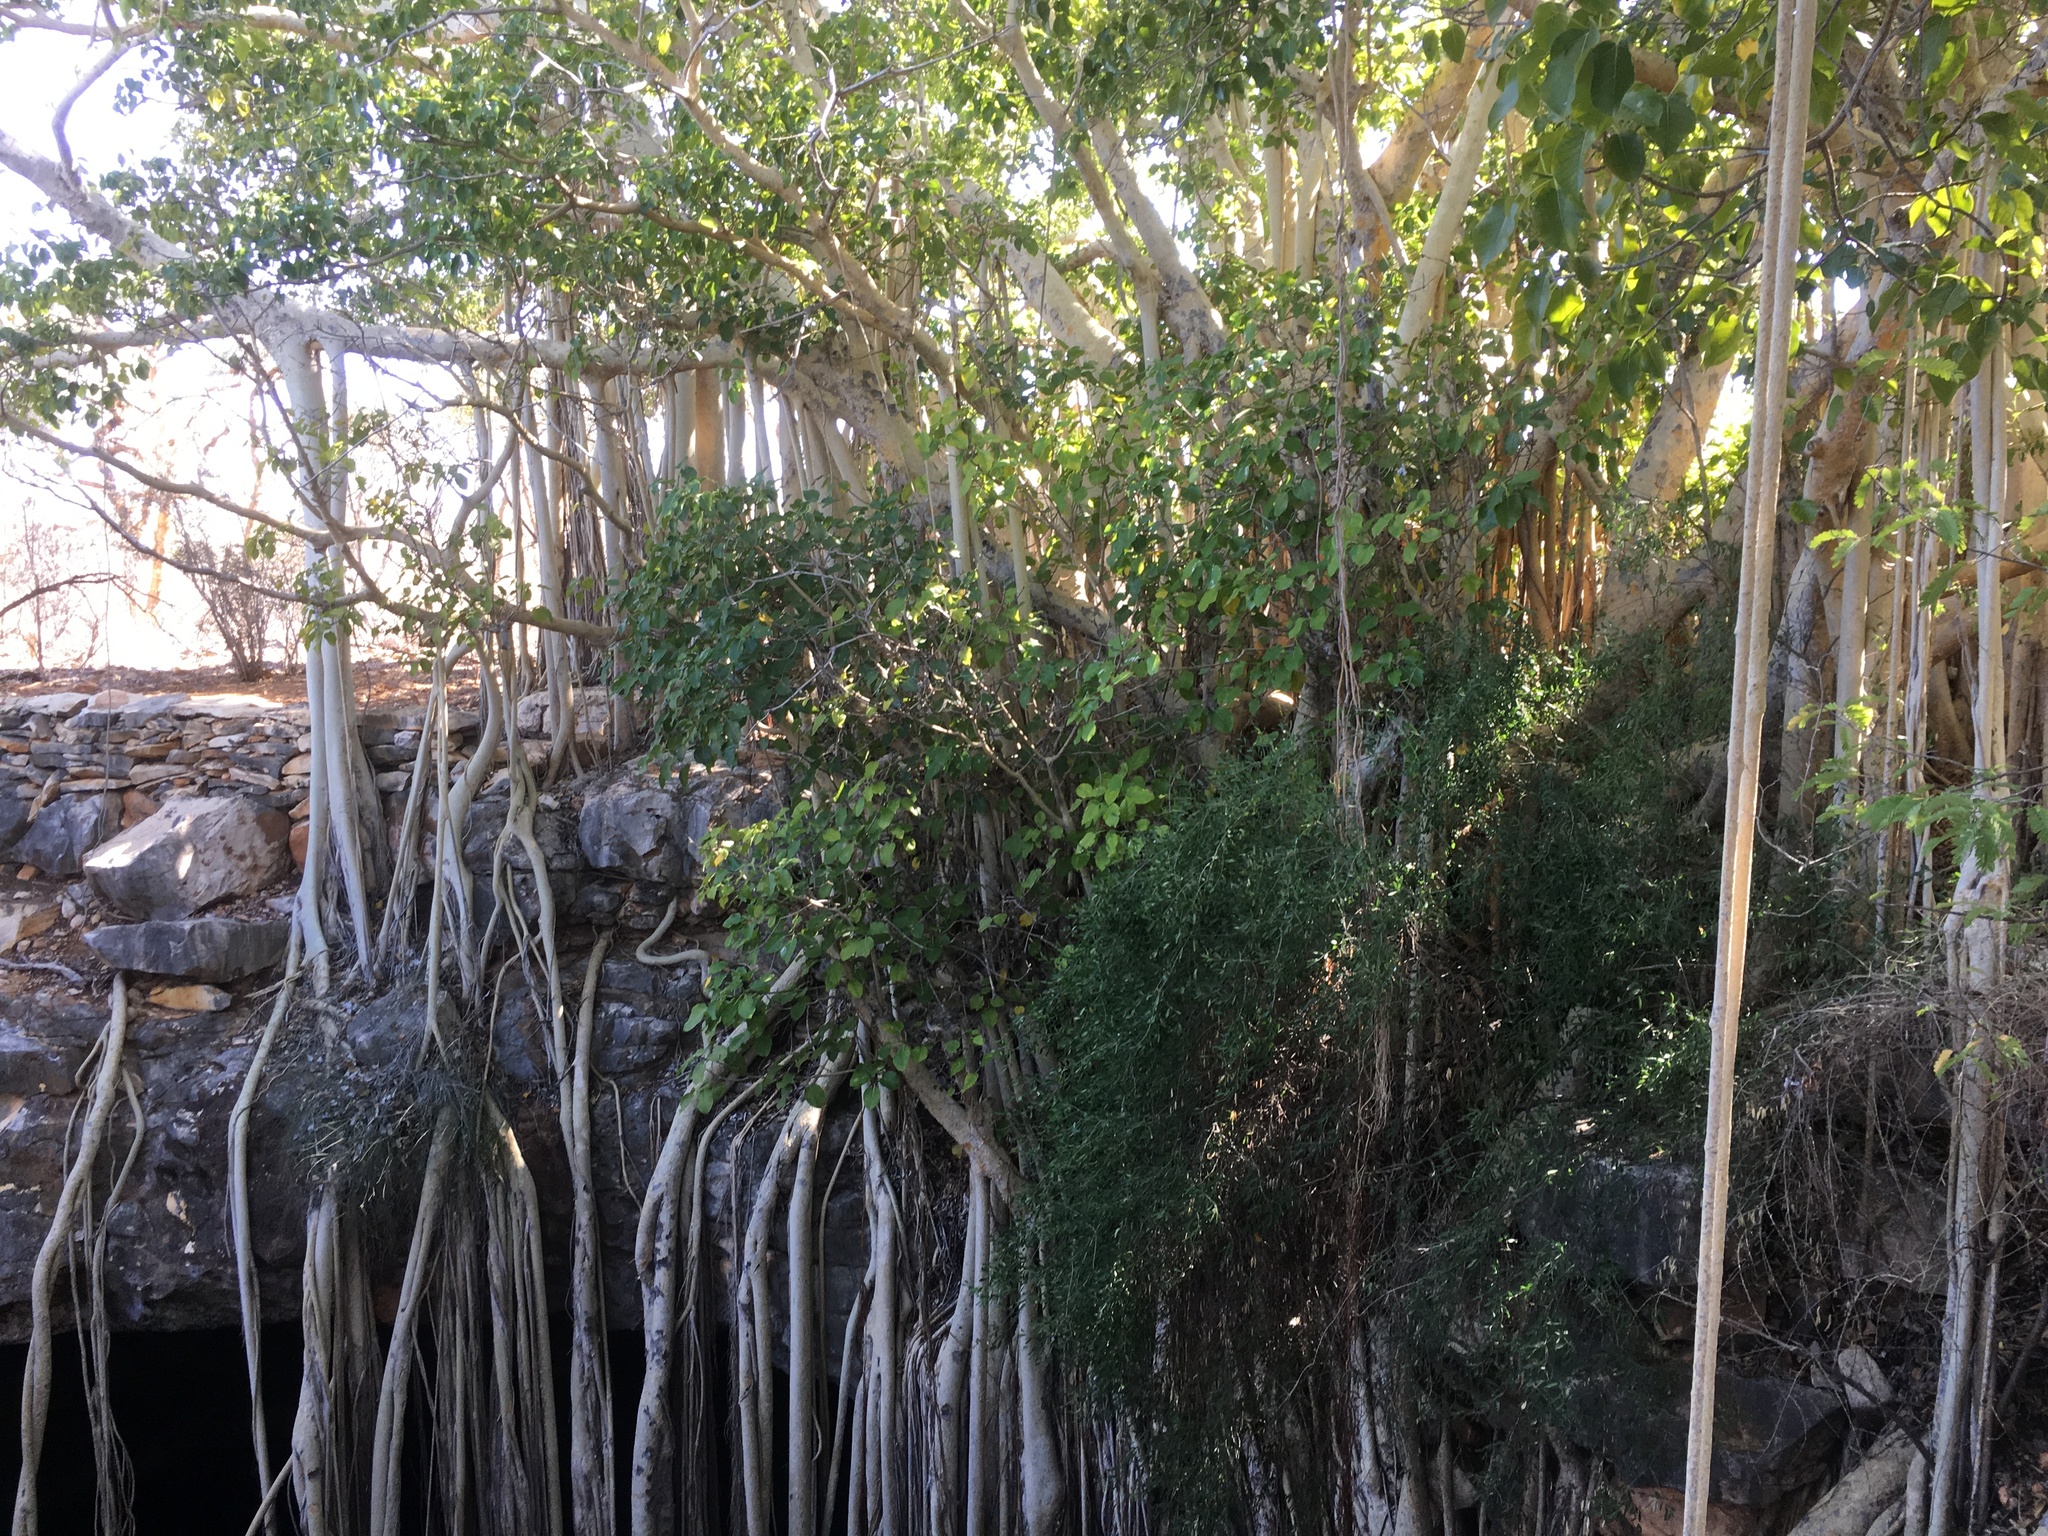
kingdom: Plantae
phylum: Tracheophyta
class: Magnoliopsida
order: Rosales
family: Moraceae
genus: Ficus
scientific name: Ficus grevei
